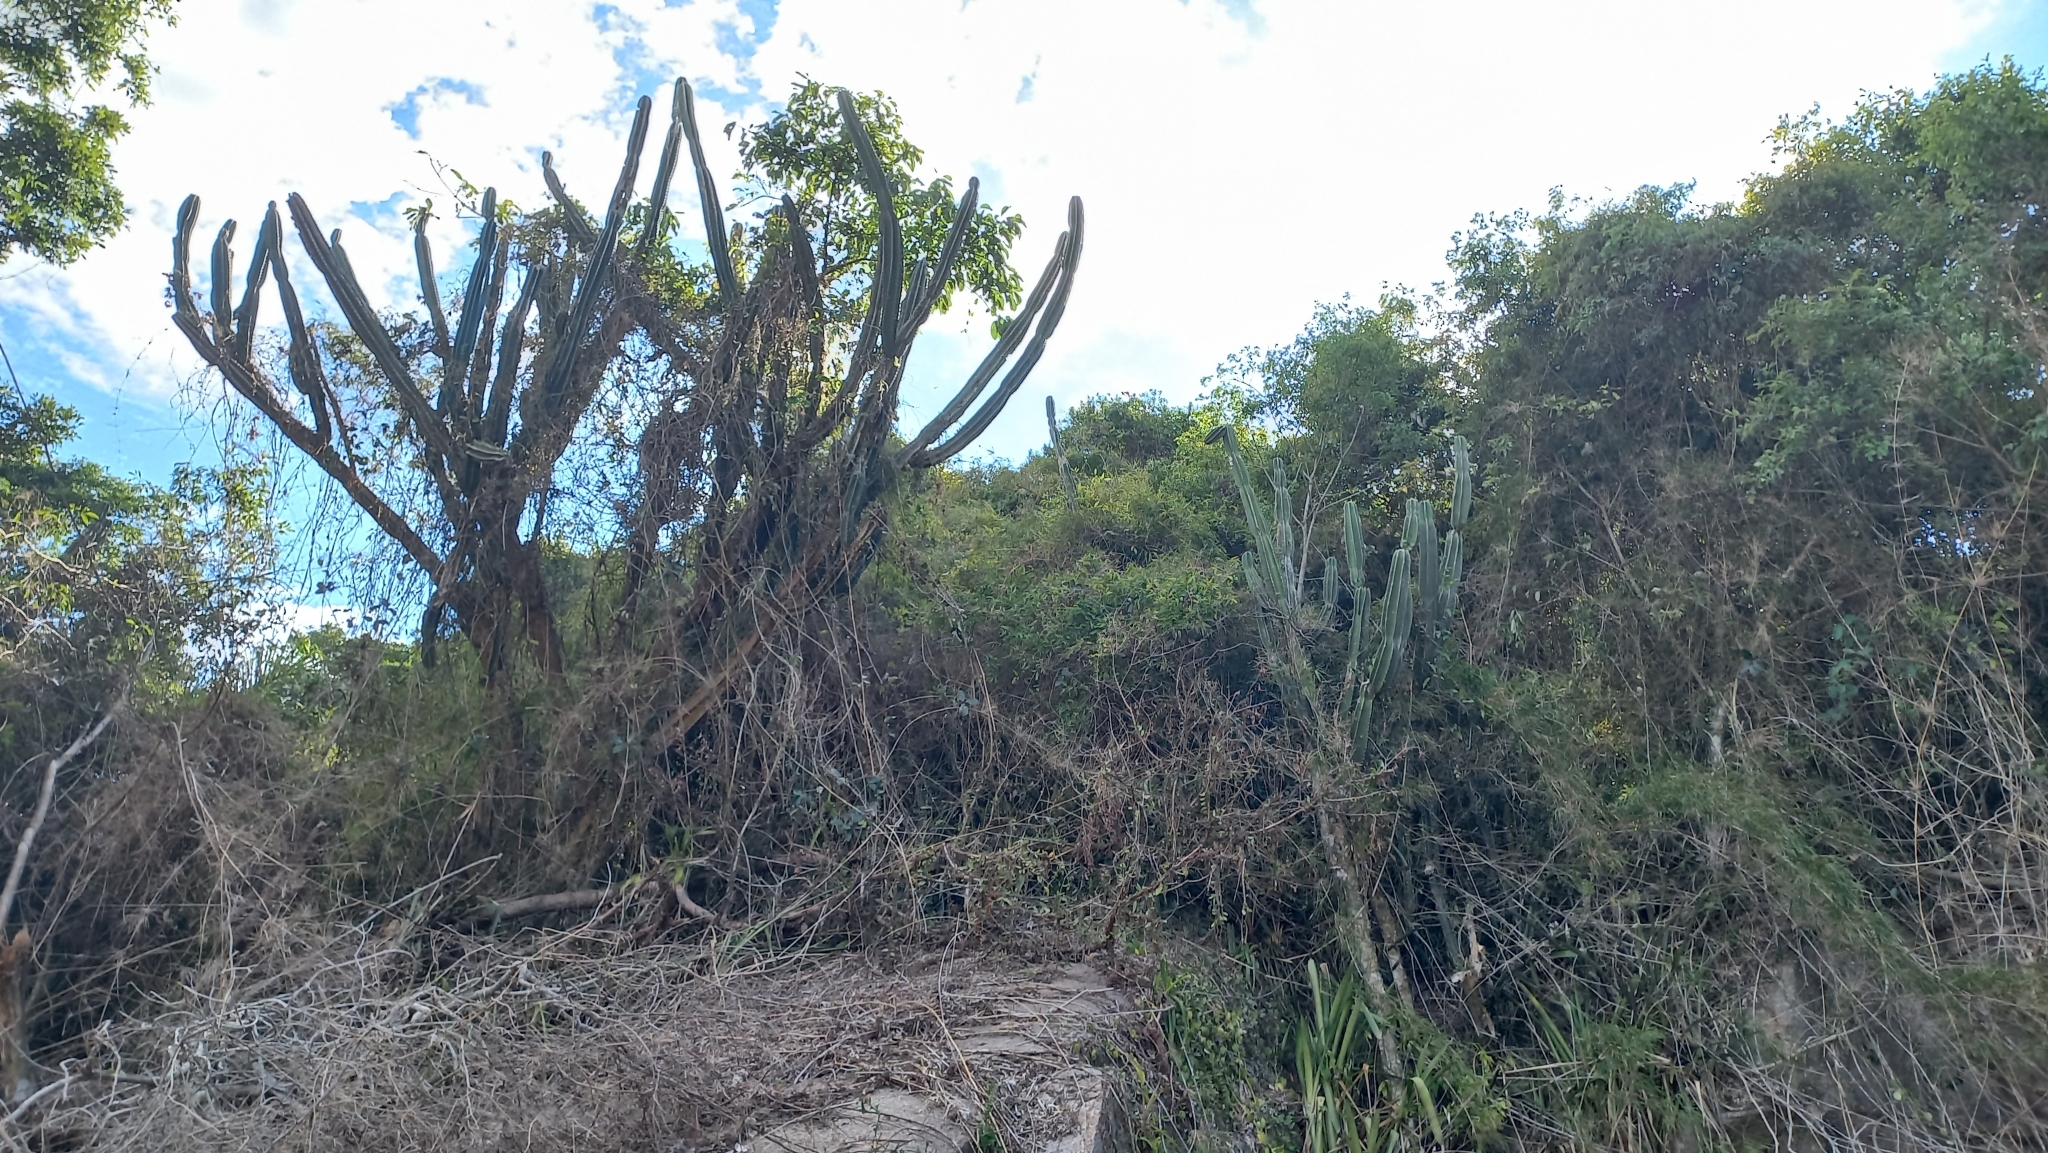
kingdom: Plantae
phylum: Tracheophyta
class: Magnoliopsida
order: Caryophyllales
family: Cactaceae
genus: Cereus
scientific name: Cereus hildmannianus
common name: Hedge cactus
